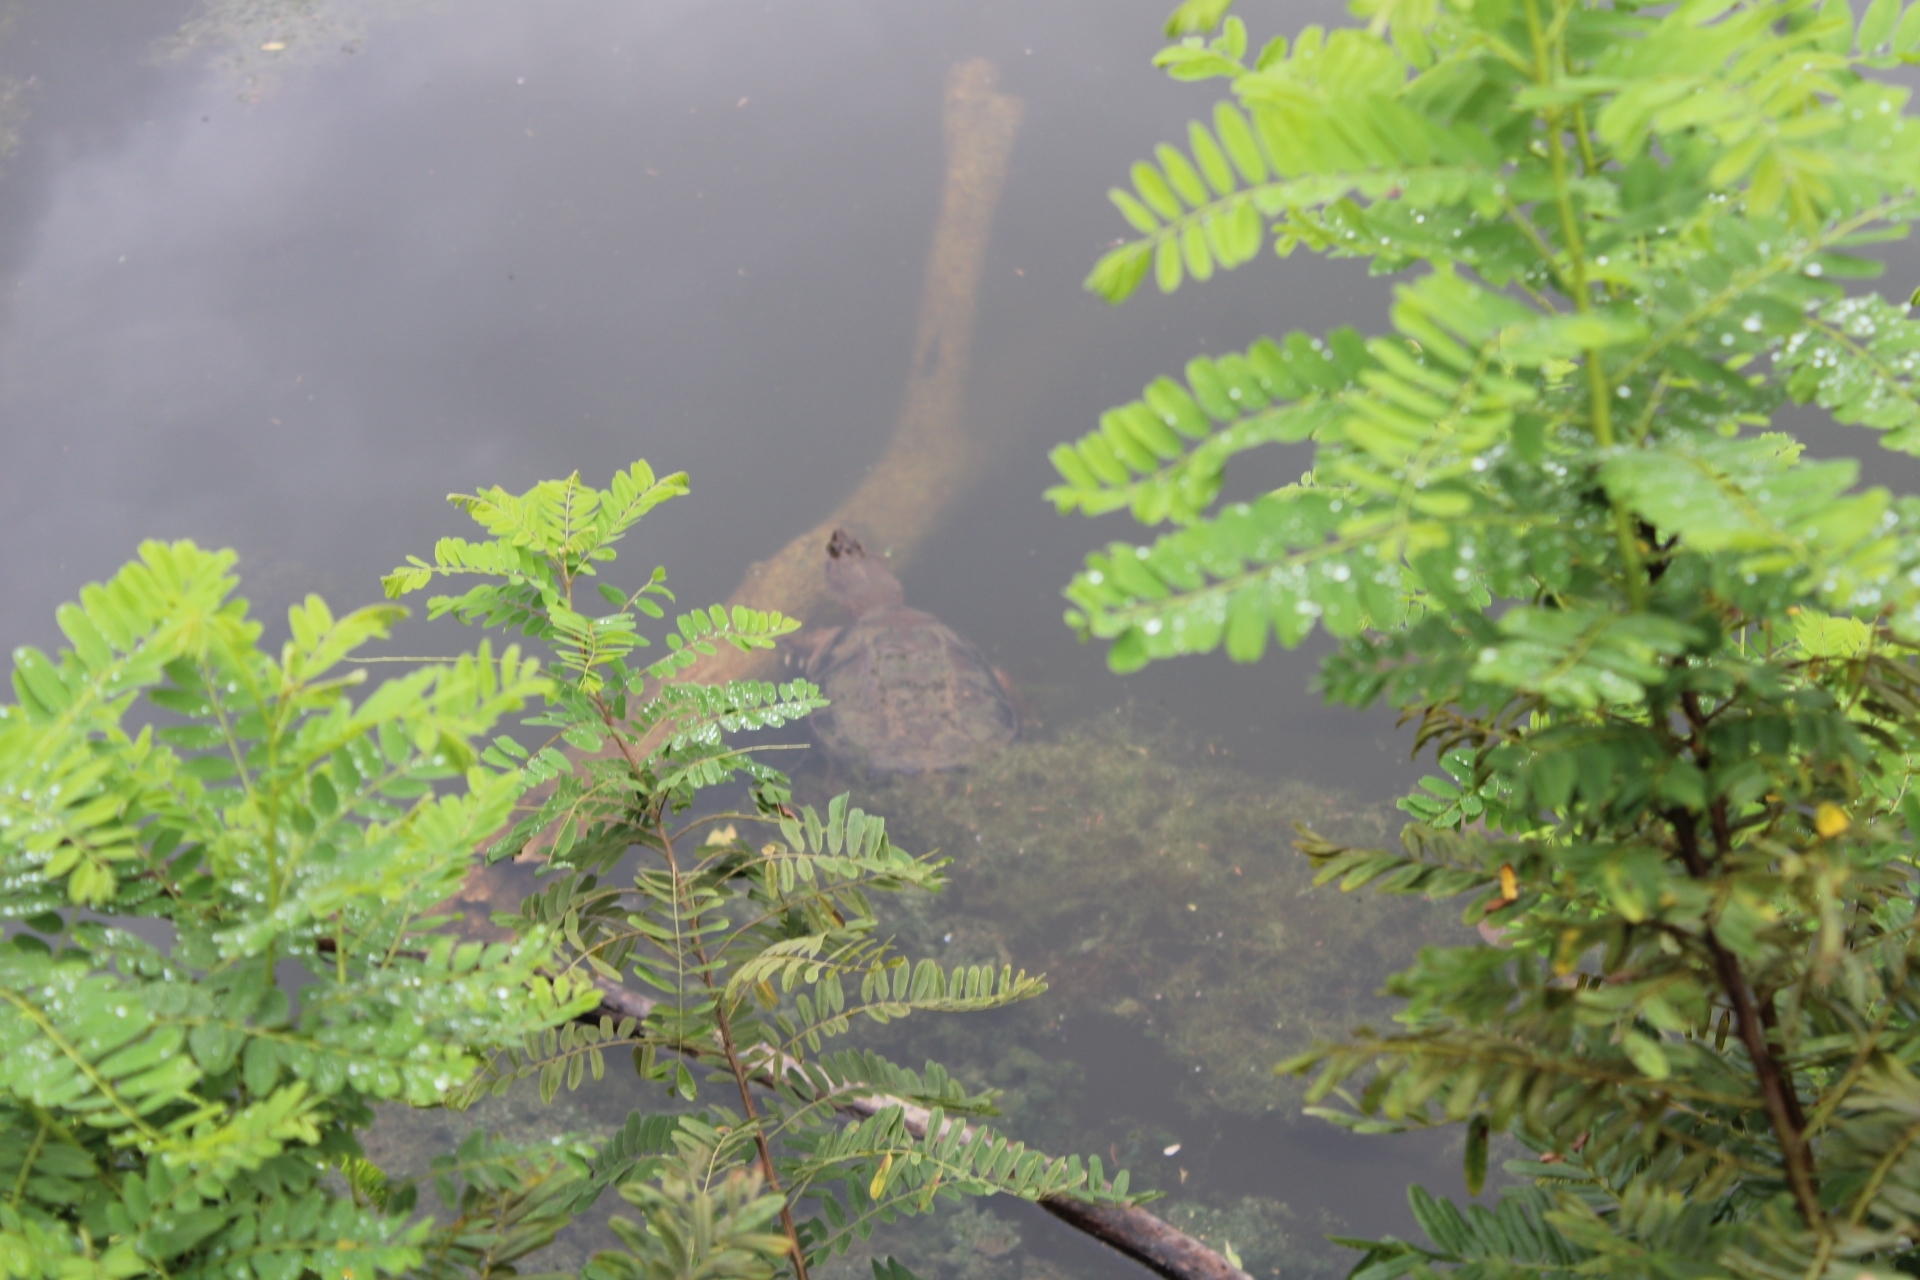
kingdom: Animalia
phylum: Chordata
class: Testudines
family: Chelydridae
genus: Chelydra
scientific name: Chelydra serpentina
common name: Common snapping turtle
